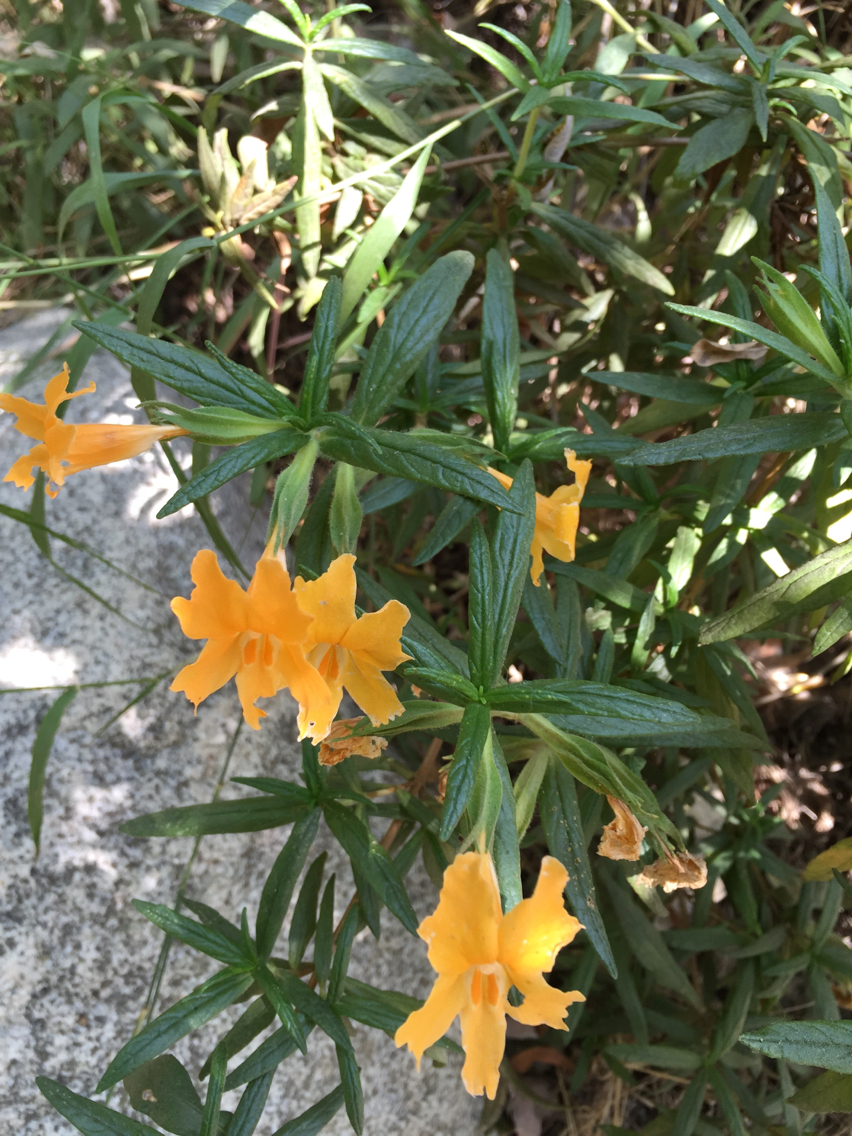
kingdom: Plantae
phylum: Tracheophyta
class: Magnoliopsida
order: Lamiales
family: Phrymaceae
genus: Diplacus
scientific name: Diplacus longiflorus
